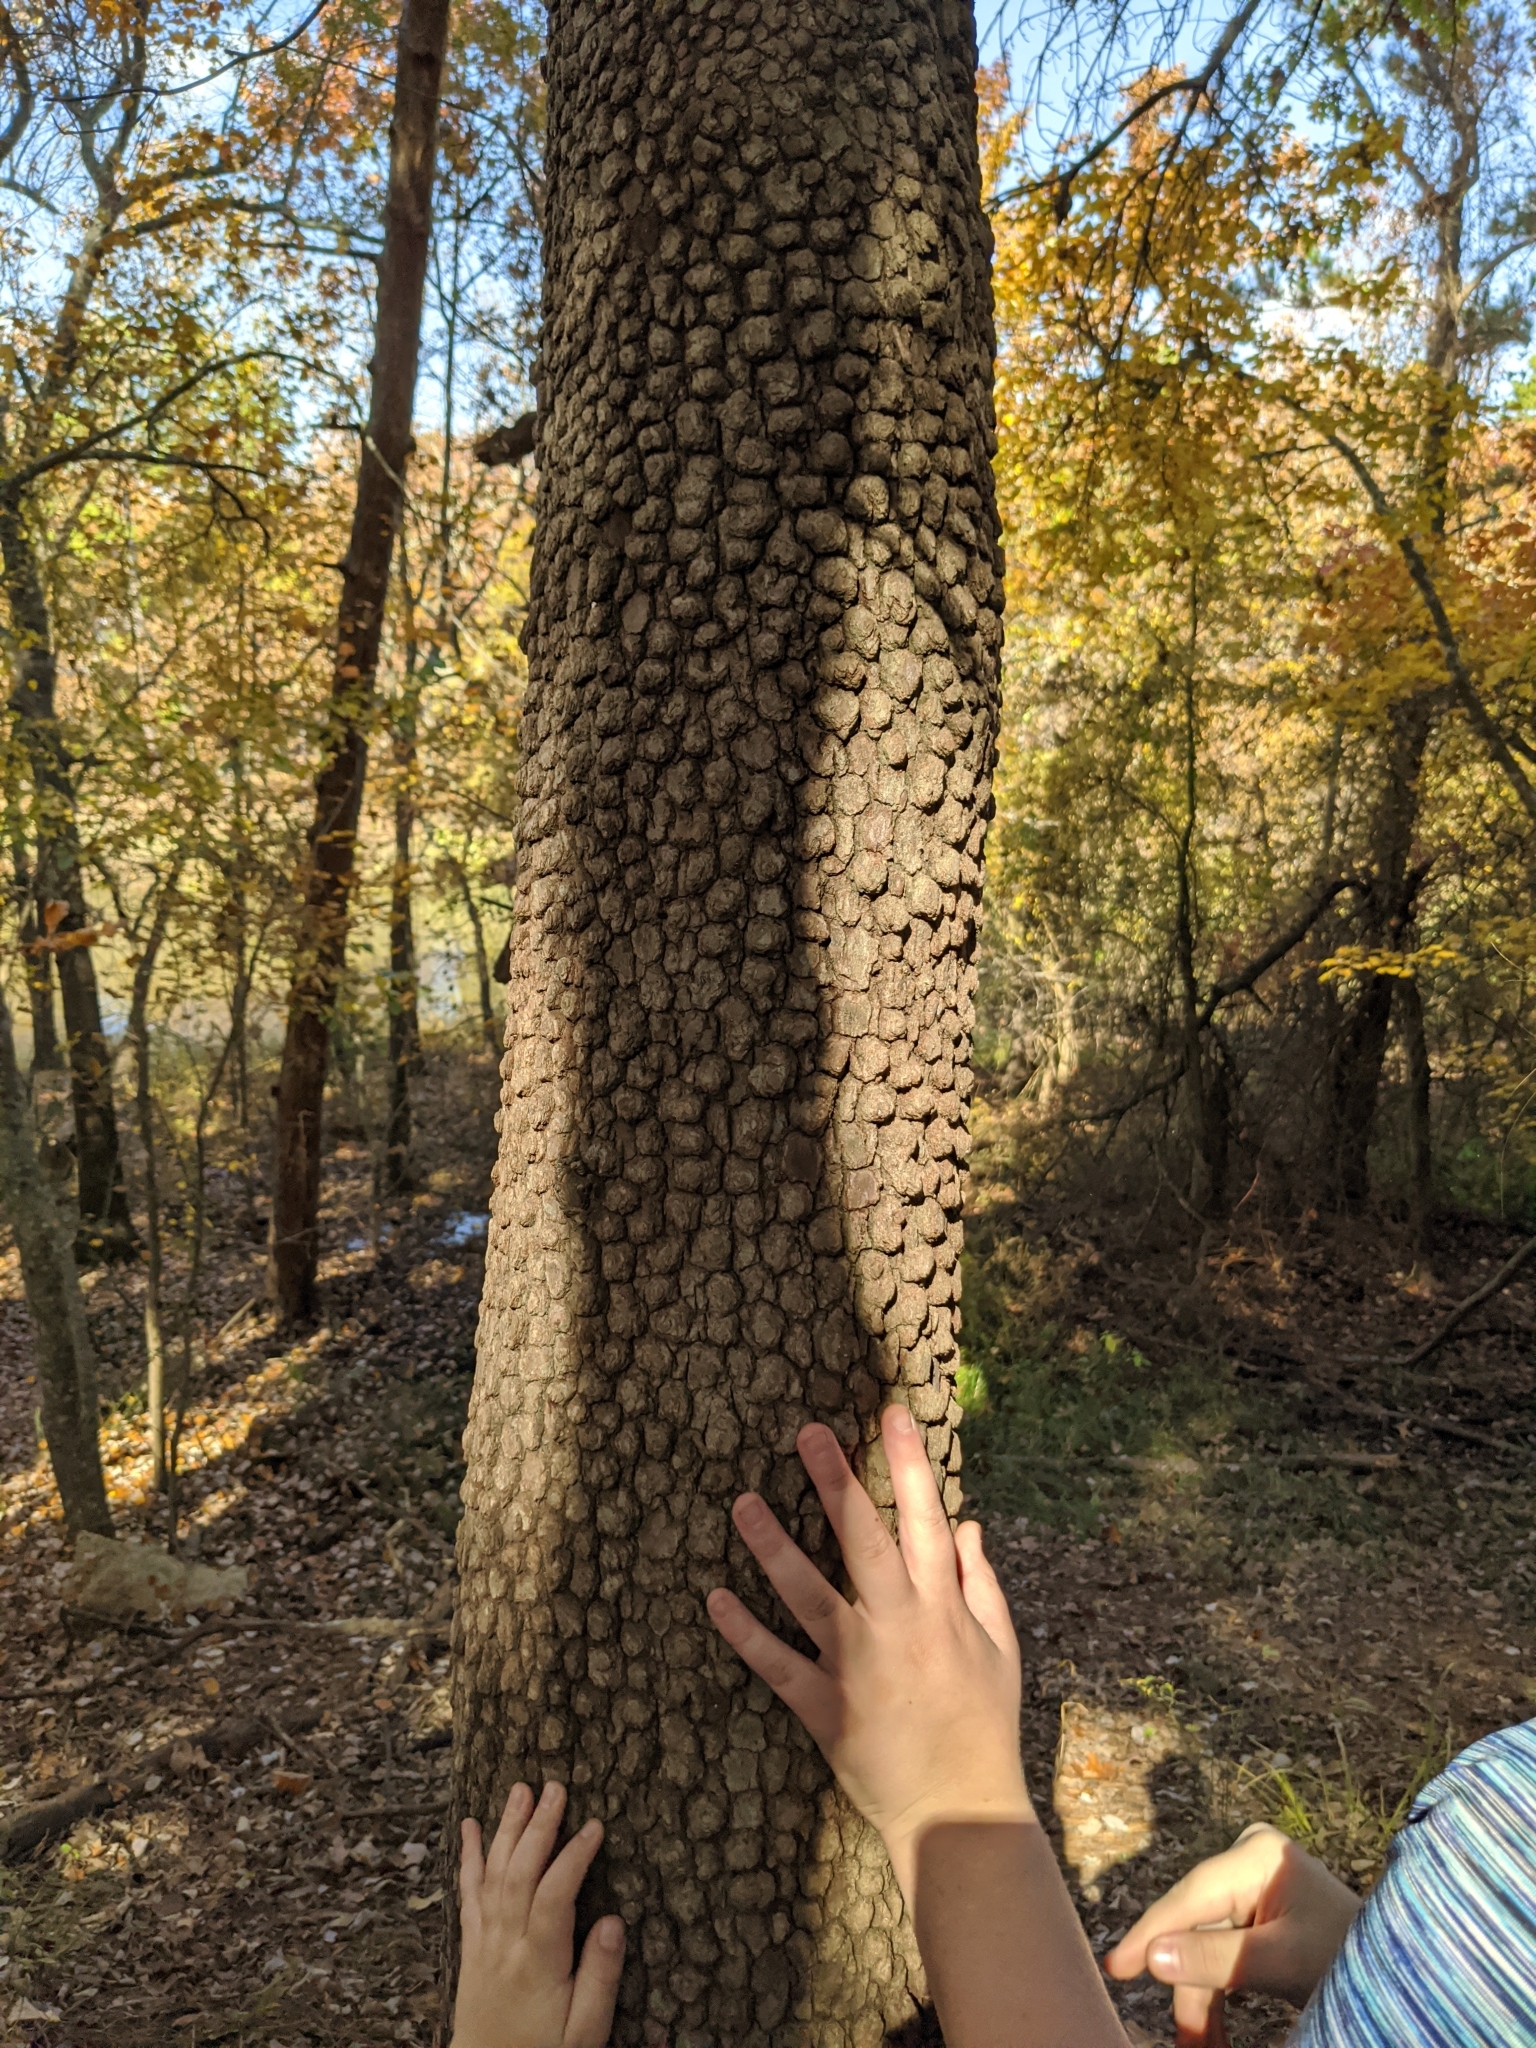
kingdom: Plantae
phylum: Tracheophyta
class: Magnoliopsida
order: Ericales
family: Ebenaceae
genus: Diospyros
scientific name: Diospyros virginiana
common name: Persimmon
